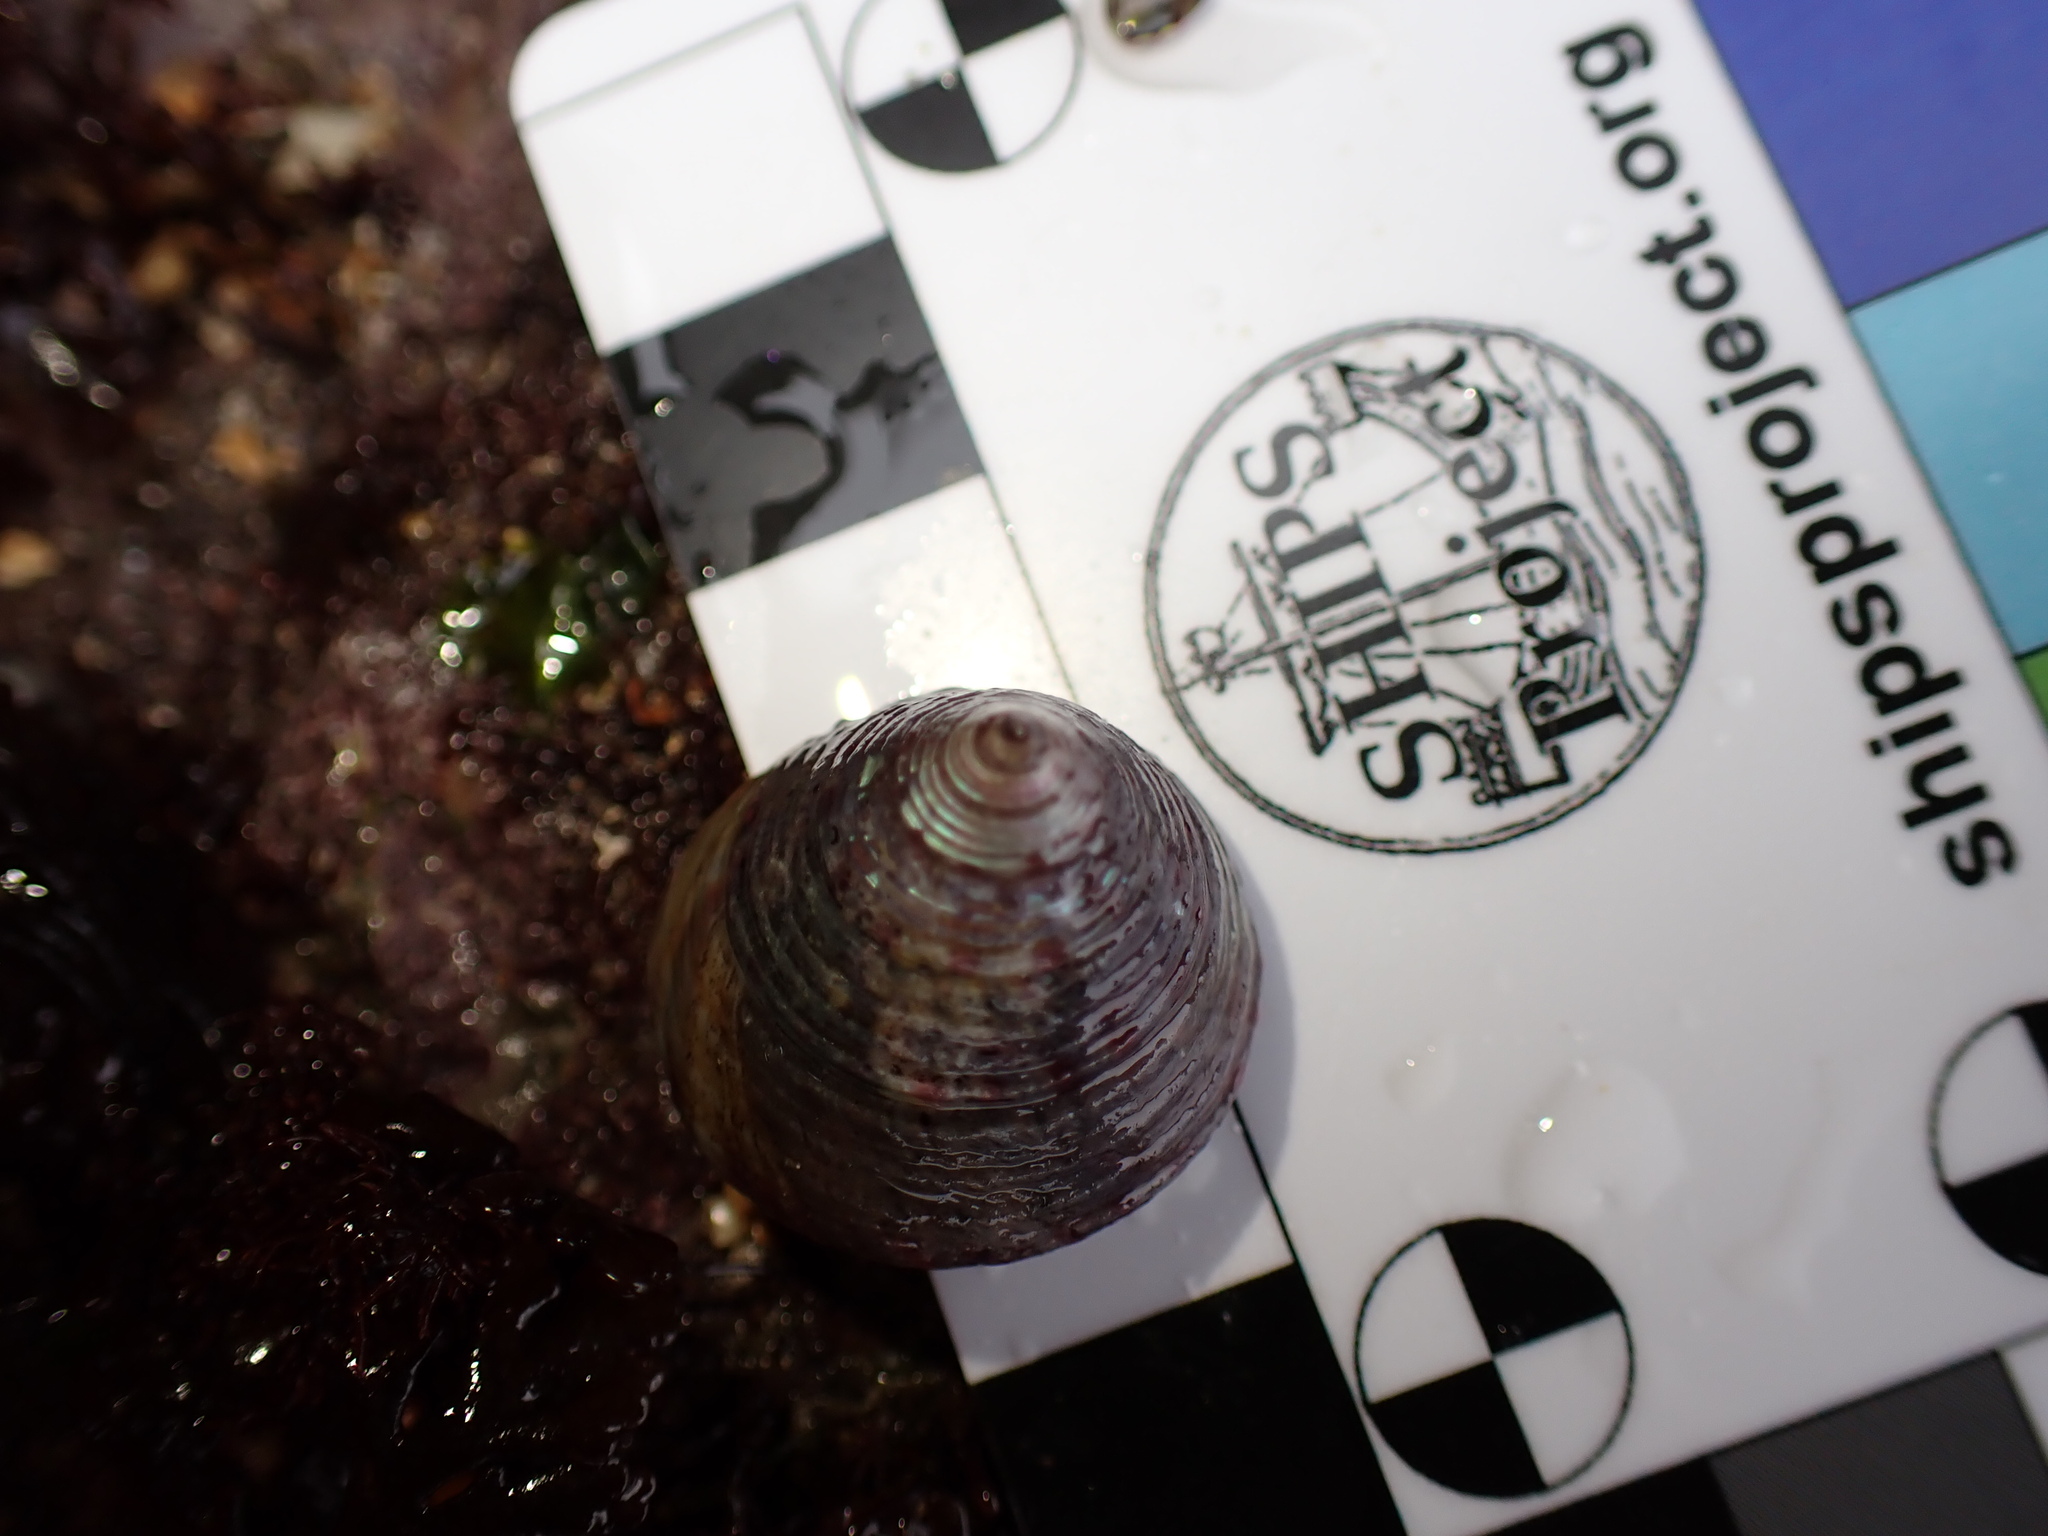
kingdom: Animalia
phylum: Mollusca
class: Gastropoda
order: Trochida
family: Calliostomatidae
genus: Calliostoma
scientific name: Calliostoma zizyphinum
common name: Painted top shell
